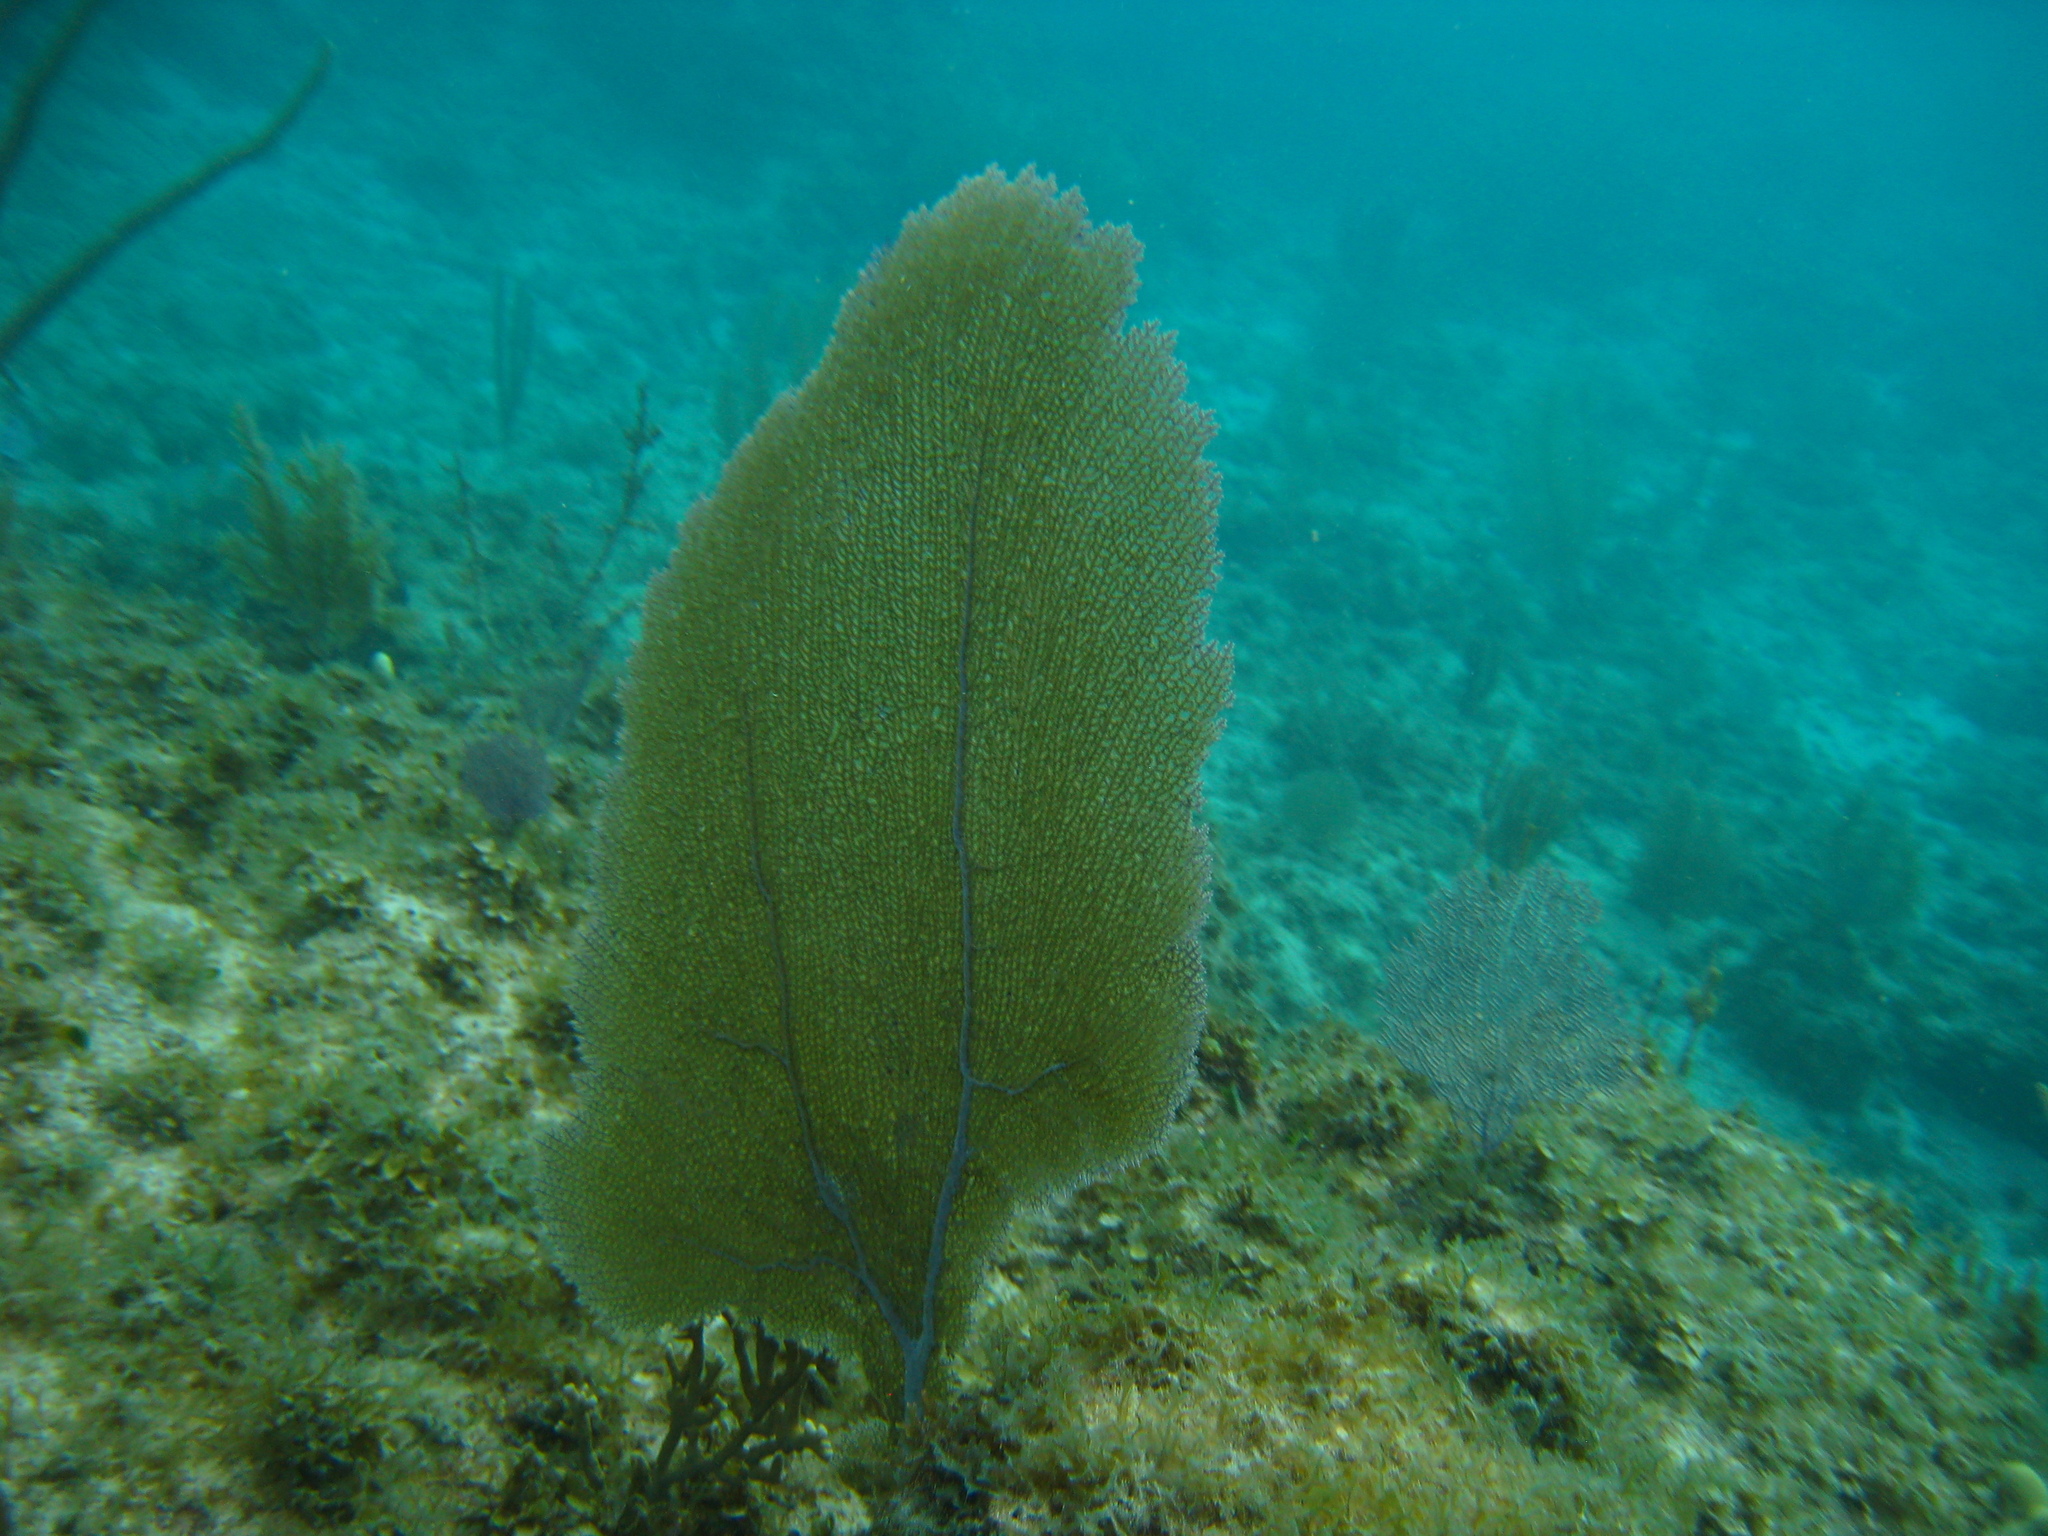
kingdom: Animalia
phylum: Cnidaria
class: Anthozoa
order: Malacalcyonacea
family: Gorgoniidae
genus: Gorgonia
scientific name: Gorgonia ventalina
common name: Common sea fan
